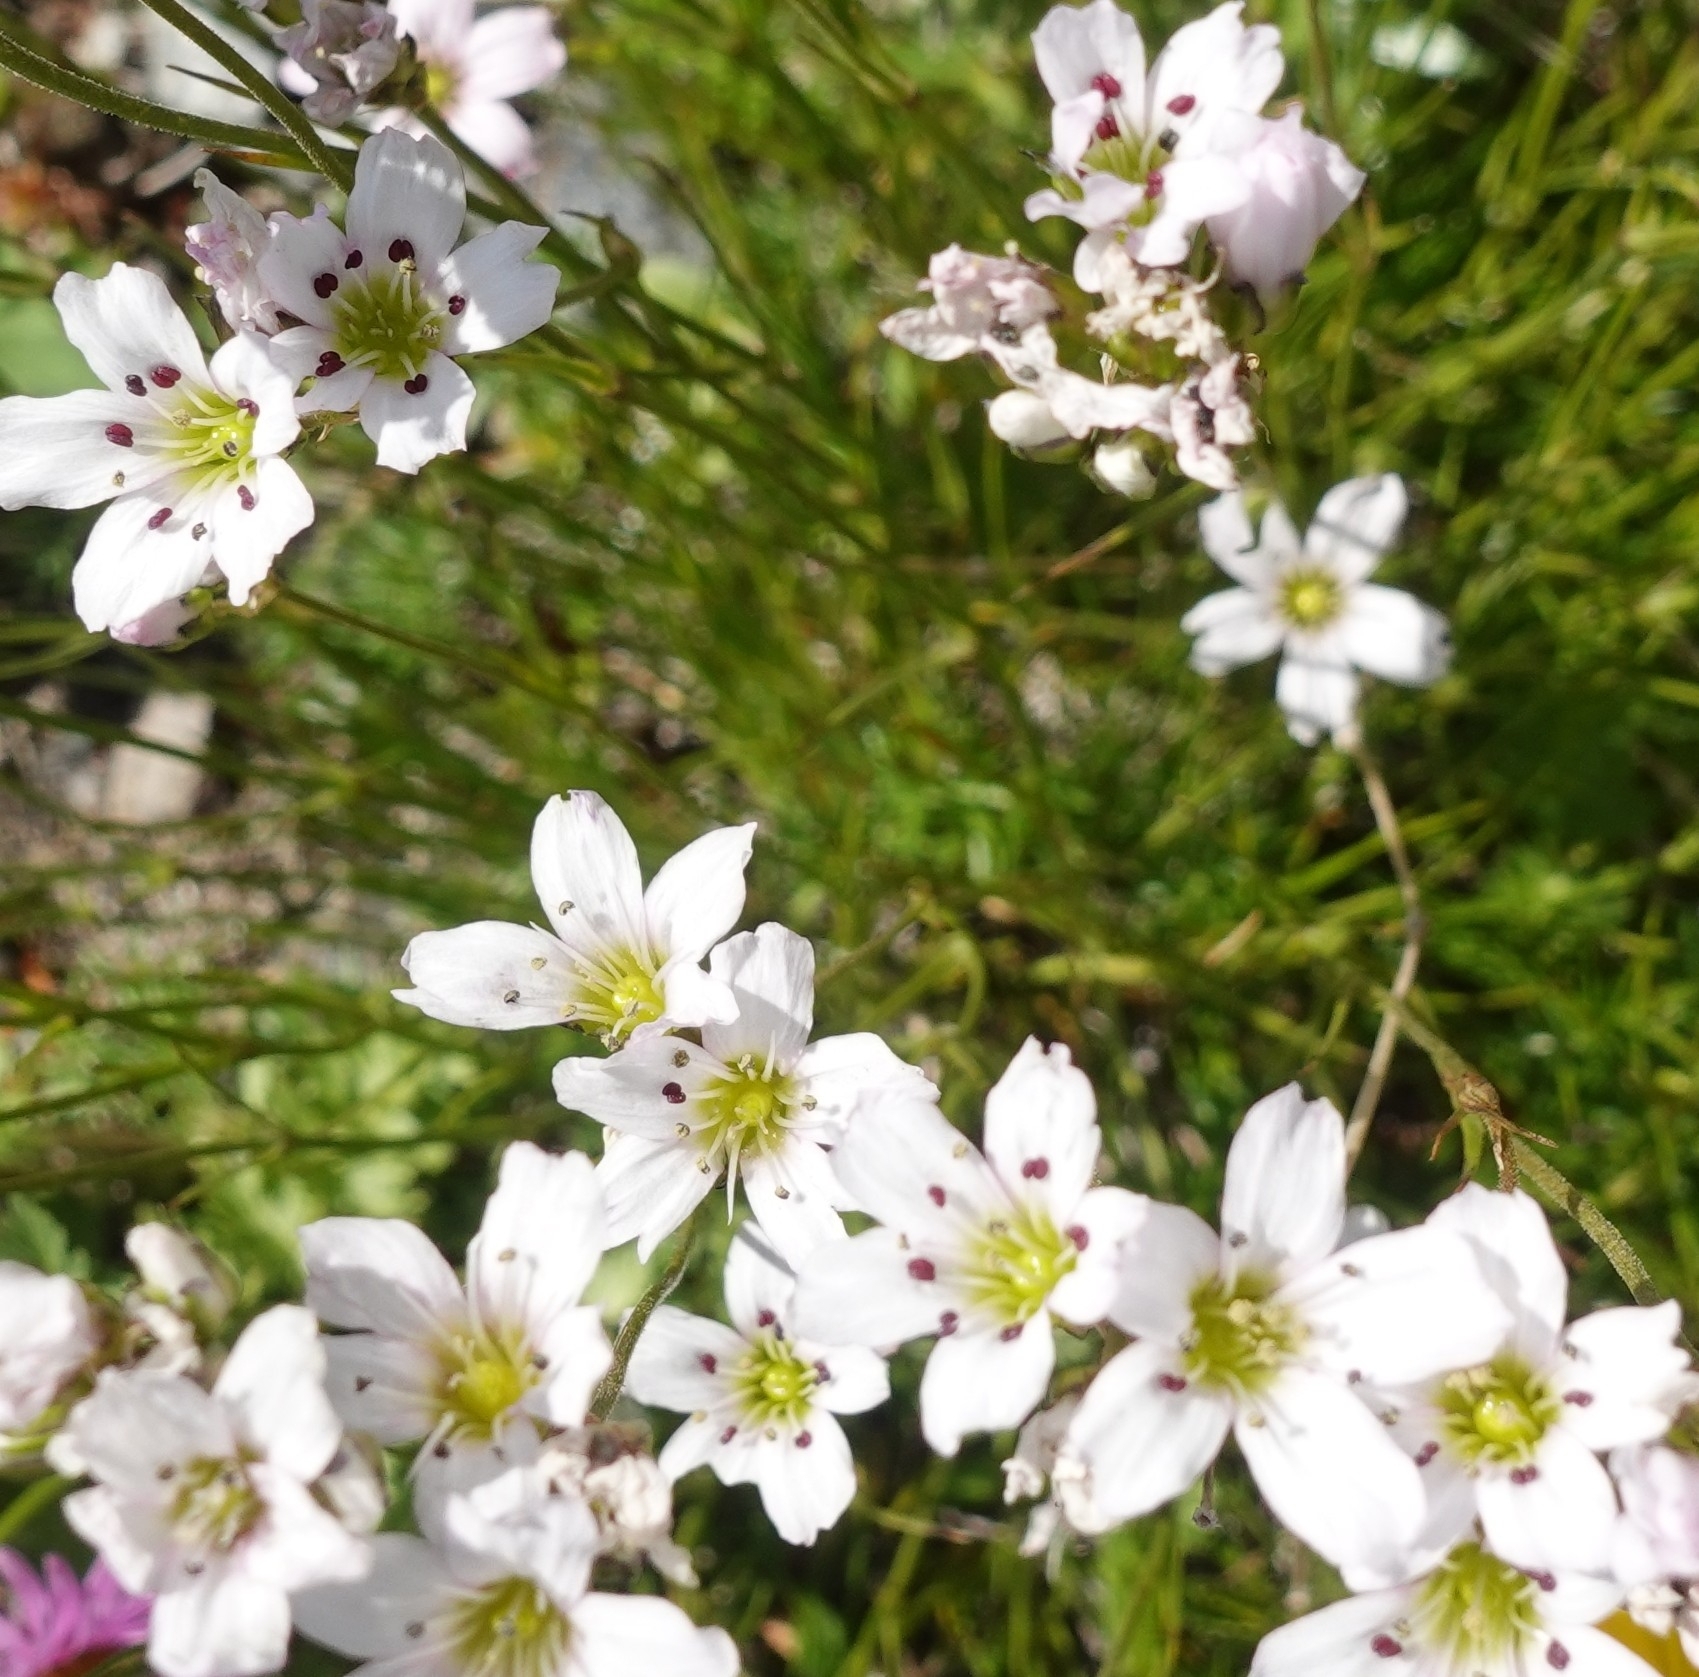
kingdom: Plantae
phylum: Tracheophyta
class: Magnoliopsida
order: Caryophyllales
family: Caryophyllaceae
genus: Eremogone
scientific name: Eremogone lychnidea
